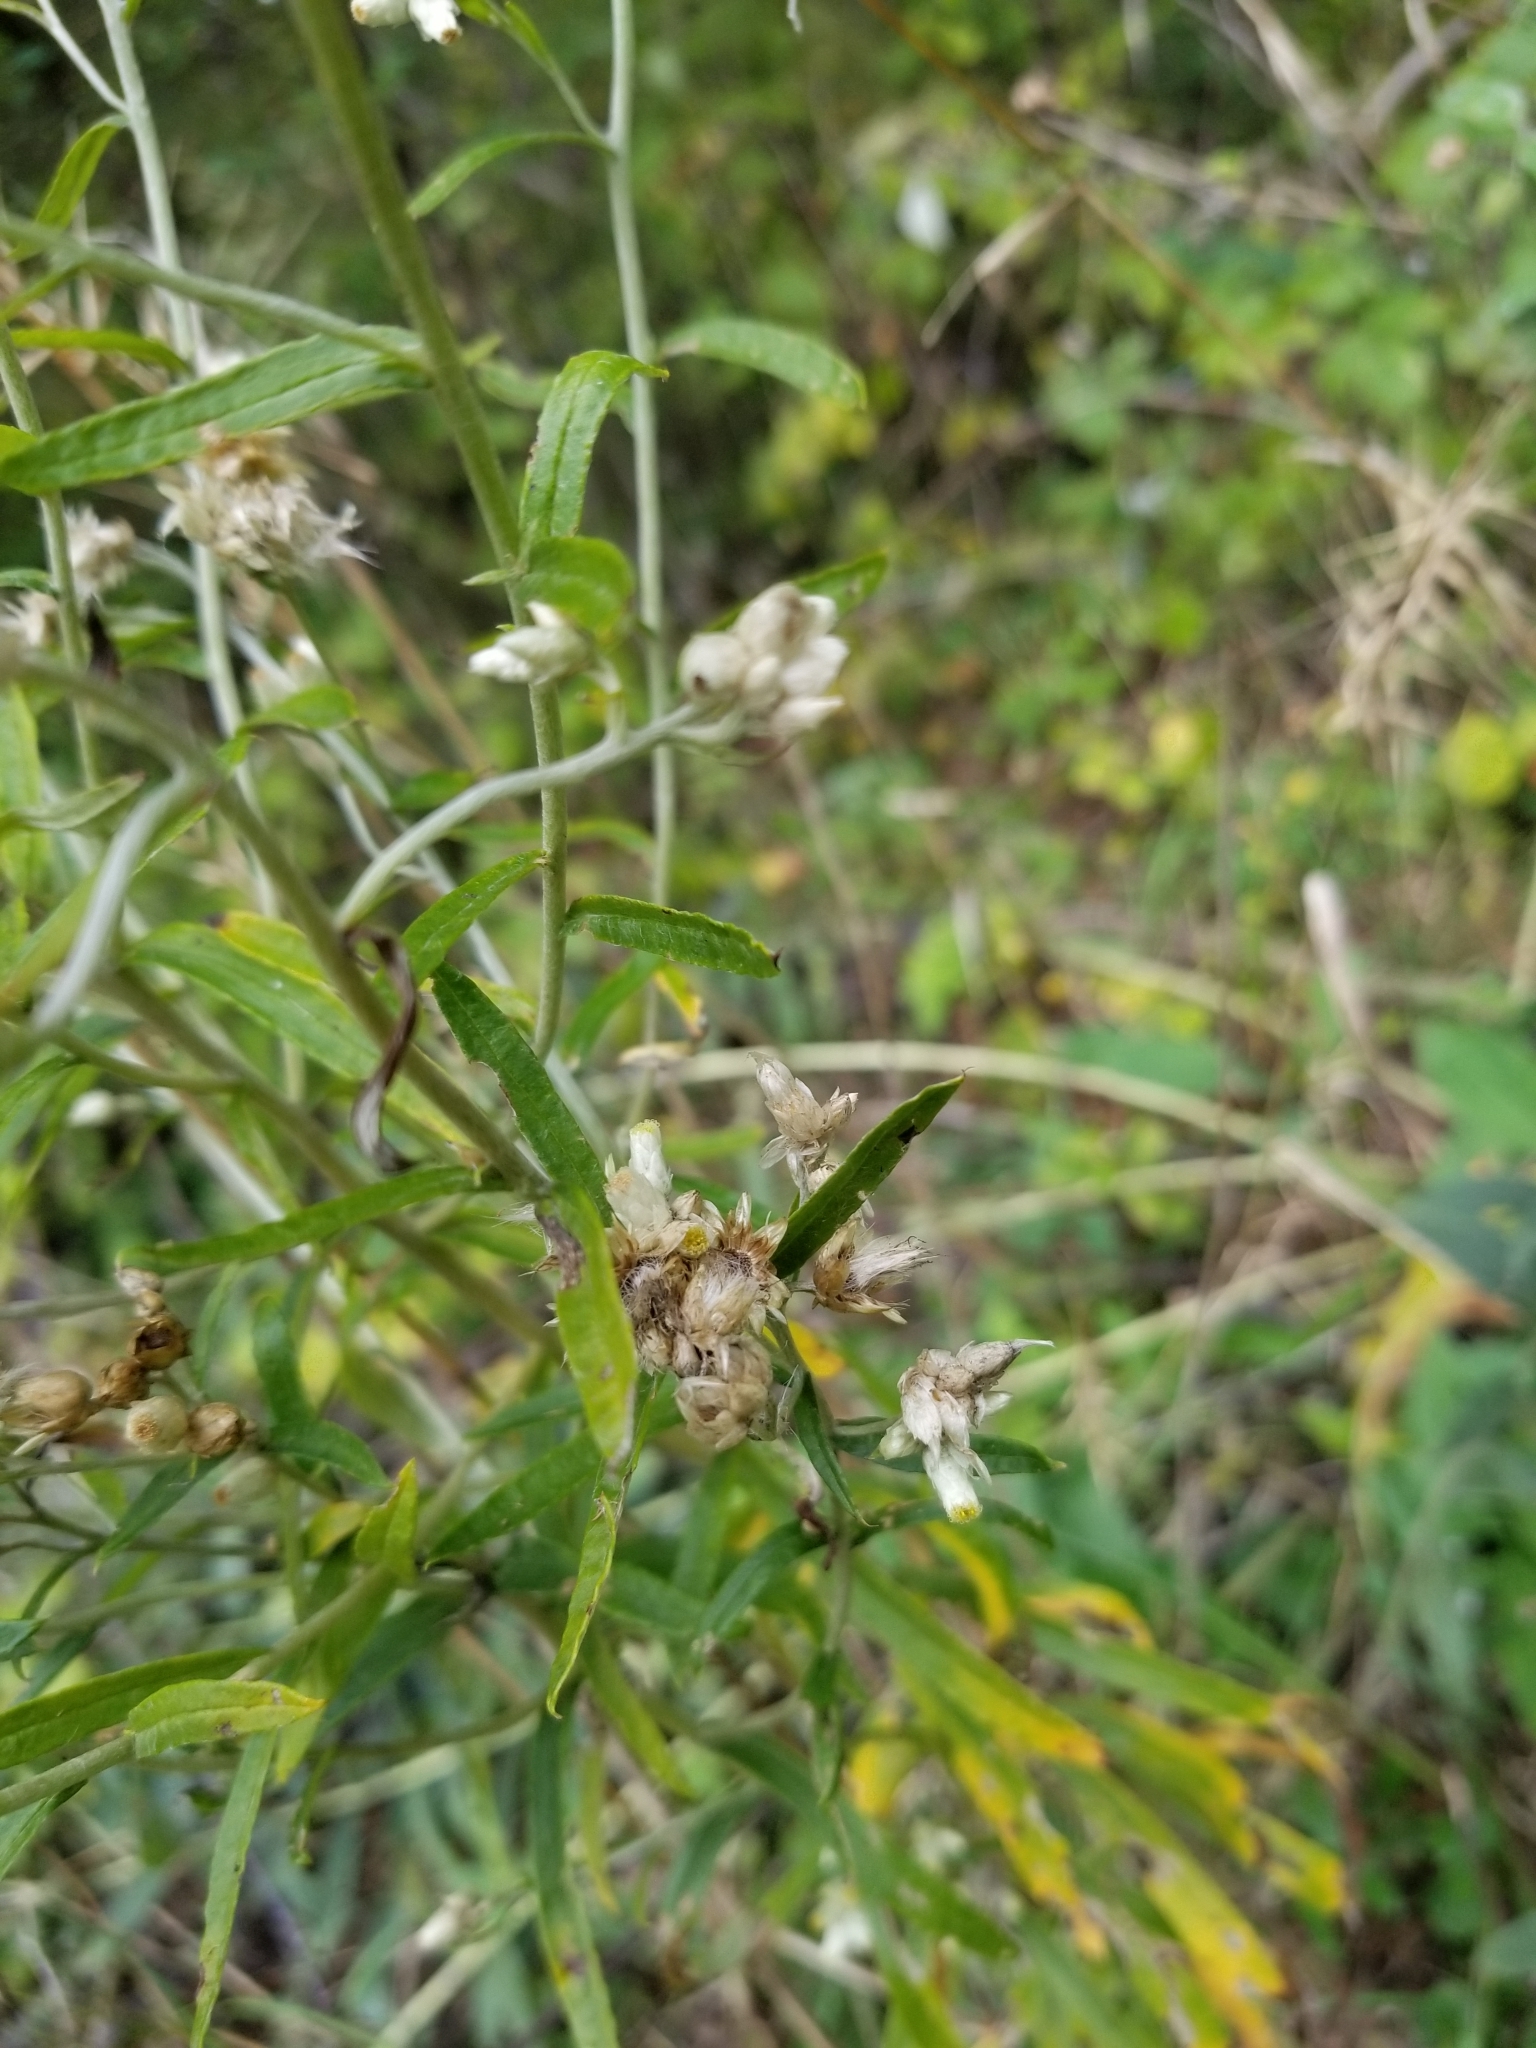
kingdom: Plantae
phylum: Tracheophyta
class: Magnoliopsida
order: Asterales
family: Asteraceae
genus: Pseudognaphalium
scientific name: Pseudognaphalium obtusifolium
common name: Eastern rabbit-tobacco
